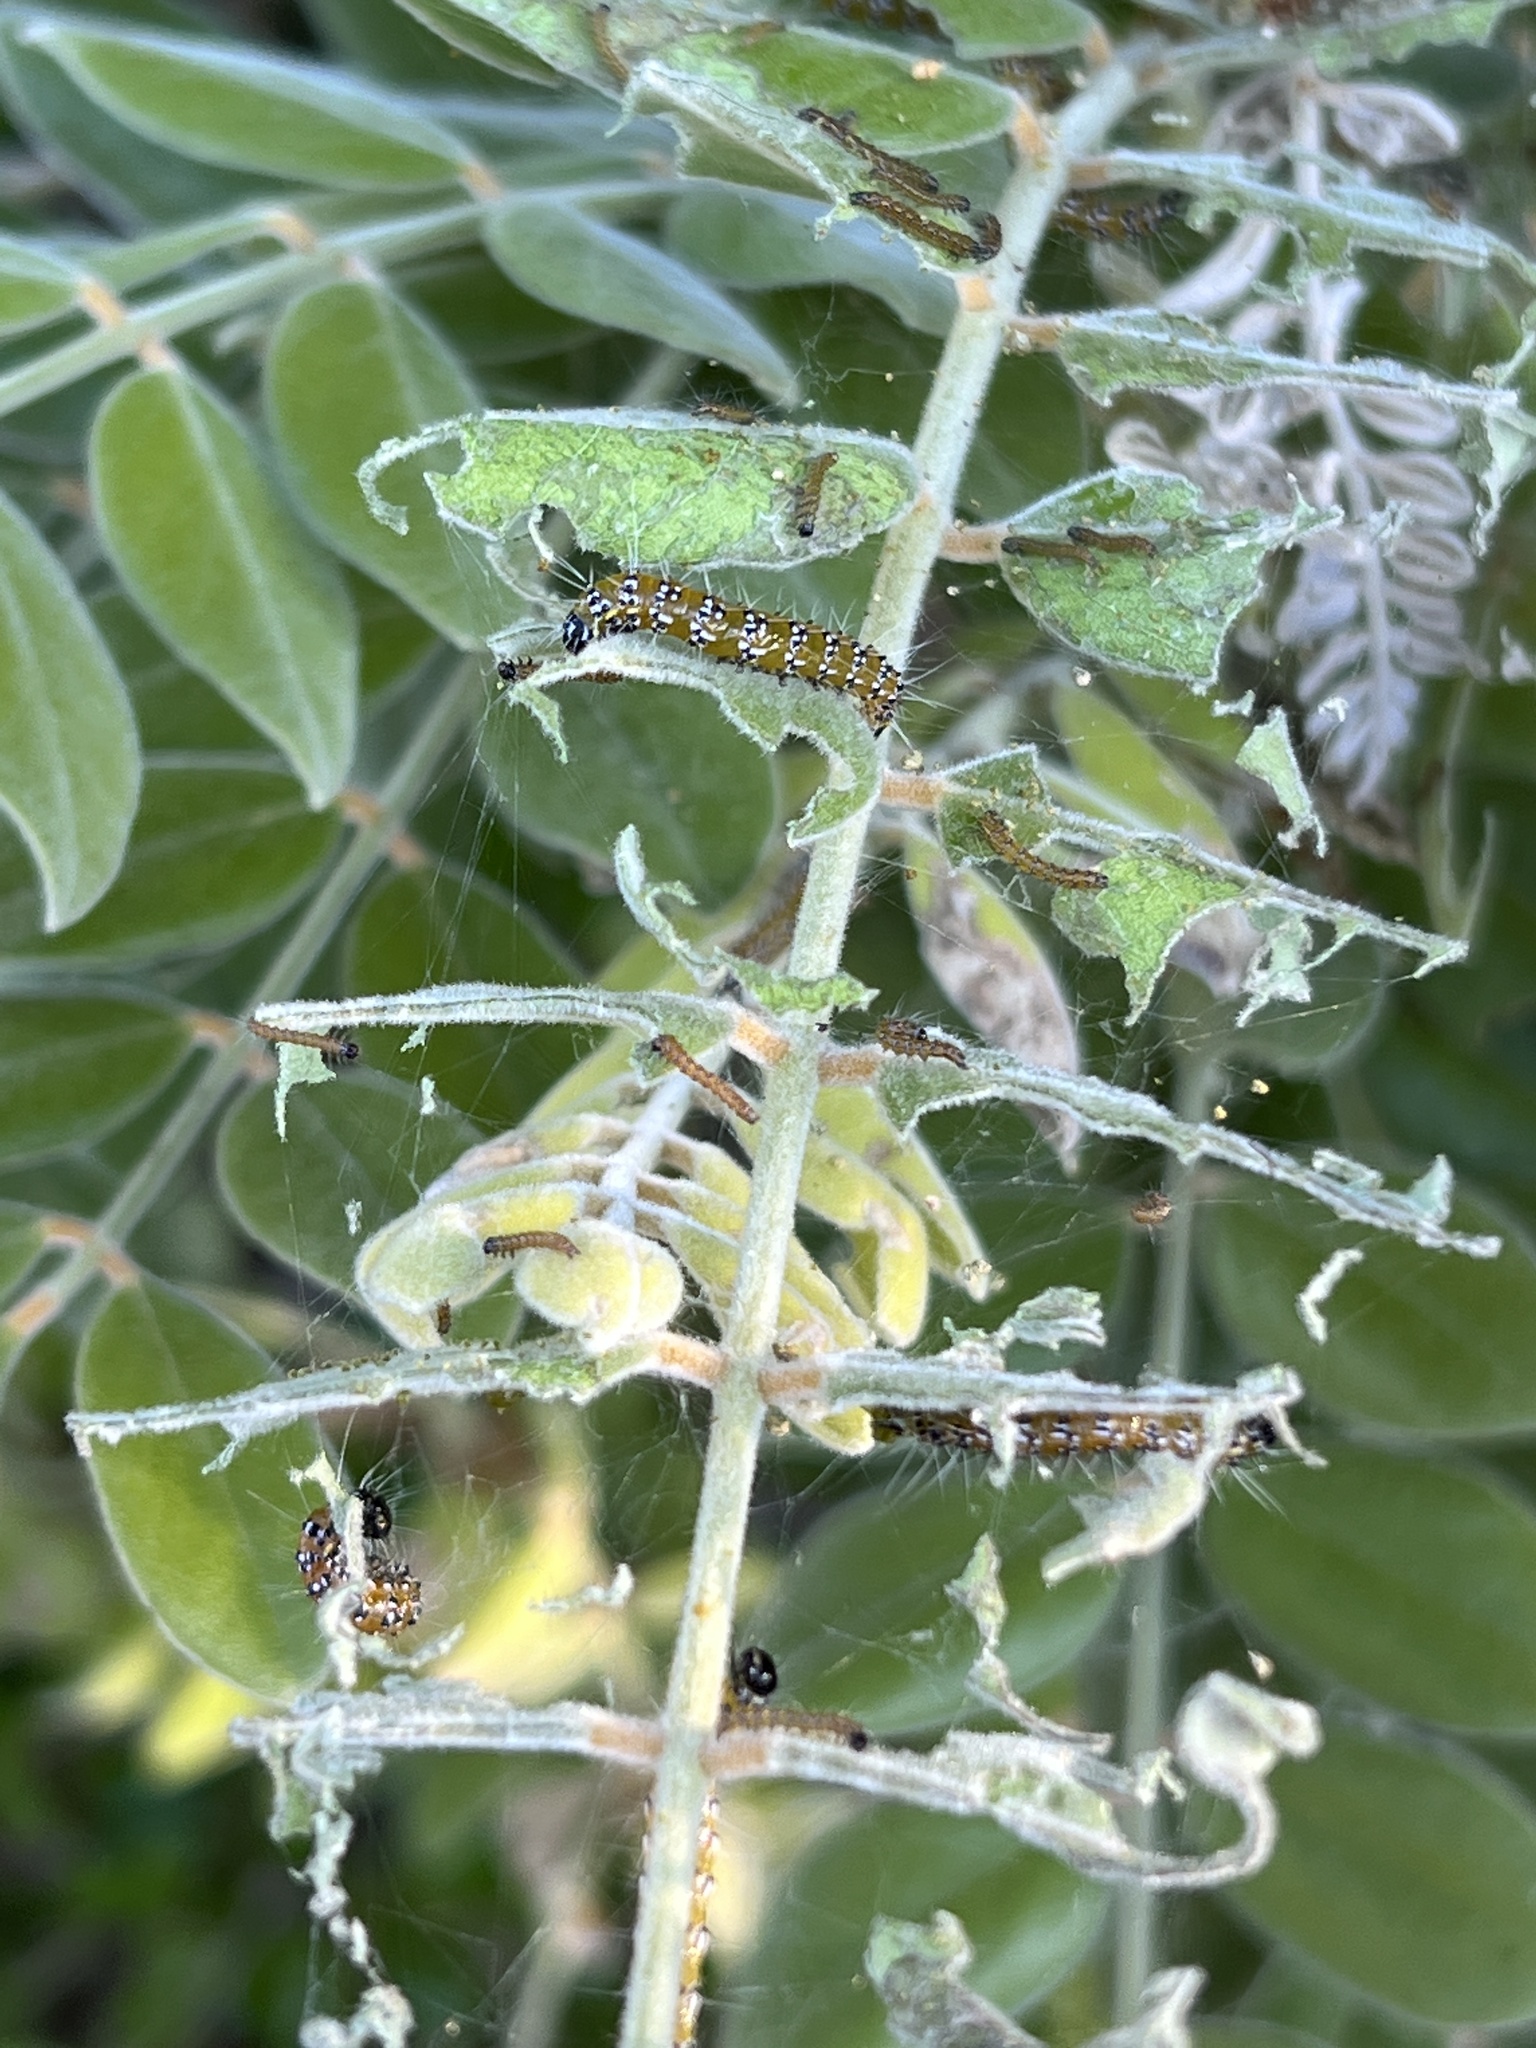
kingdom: Animalia
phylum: Arthropoda
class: Insecta
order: Lepidoptera
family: Crambidae
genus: Uresiphita
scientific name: Uresiphita reversalis
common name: Genista broom moth
